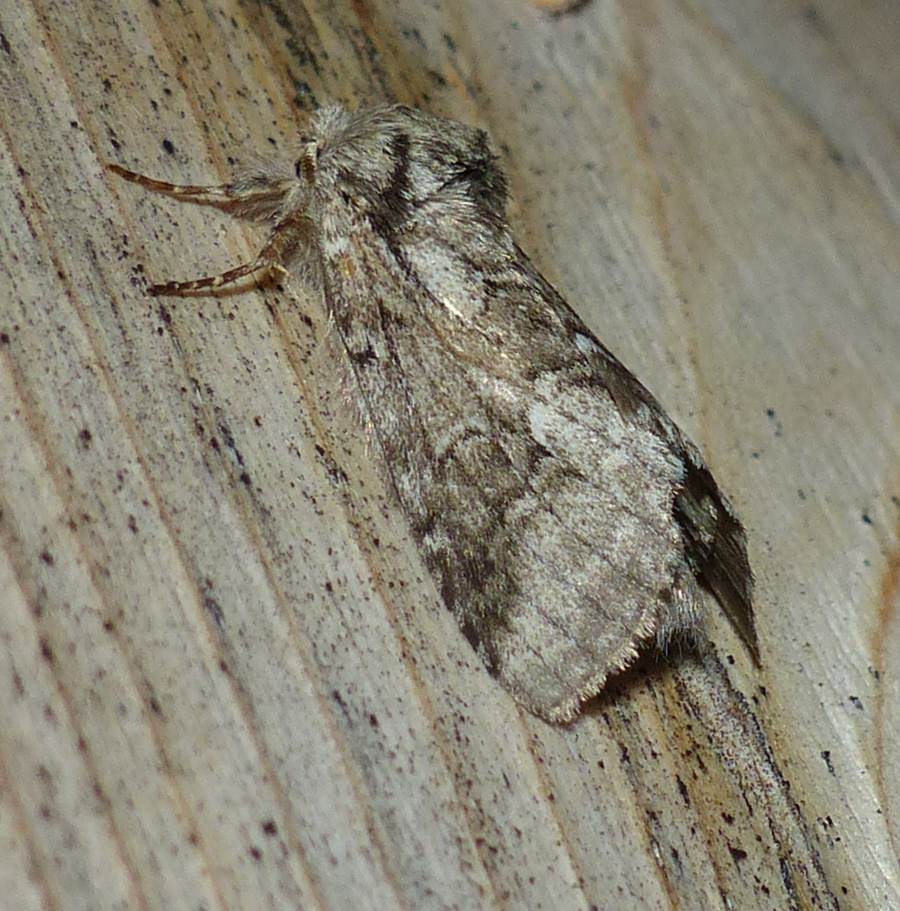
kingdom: Animalia
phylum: Arthropoda
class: Insecta
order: Lepidoptera
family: Notodontidae
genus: Lochmaeus
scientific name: Lochmaeus bilineata
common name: Double-lined prominent
